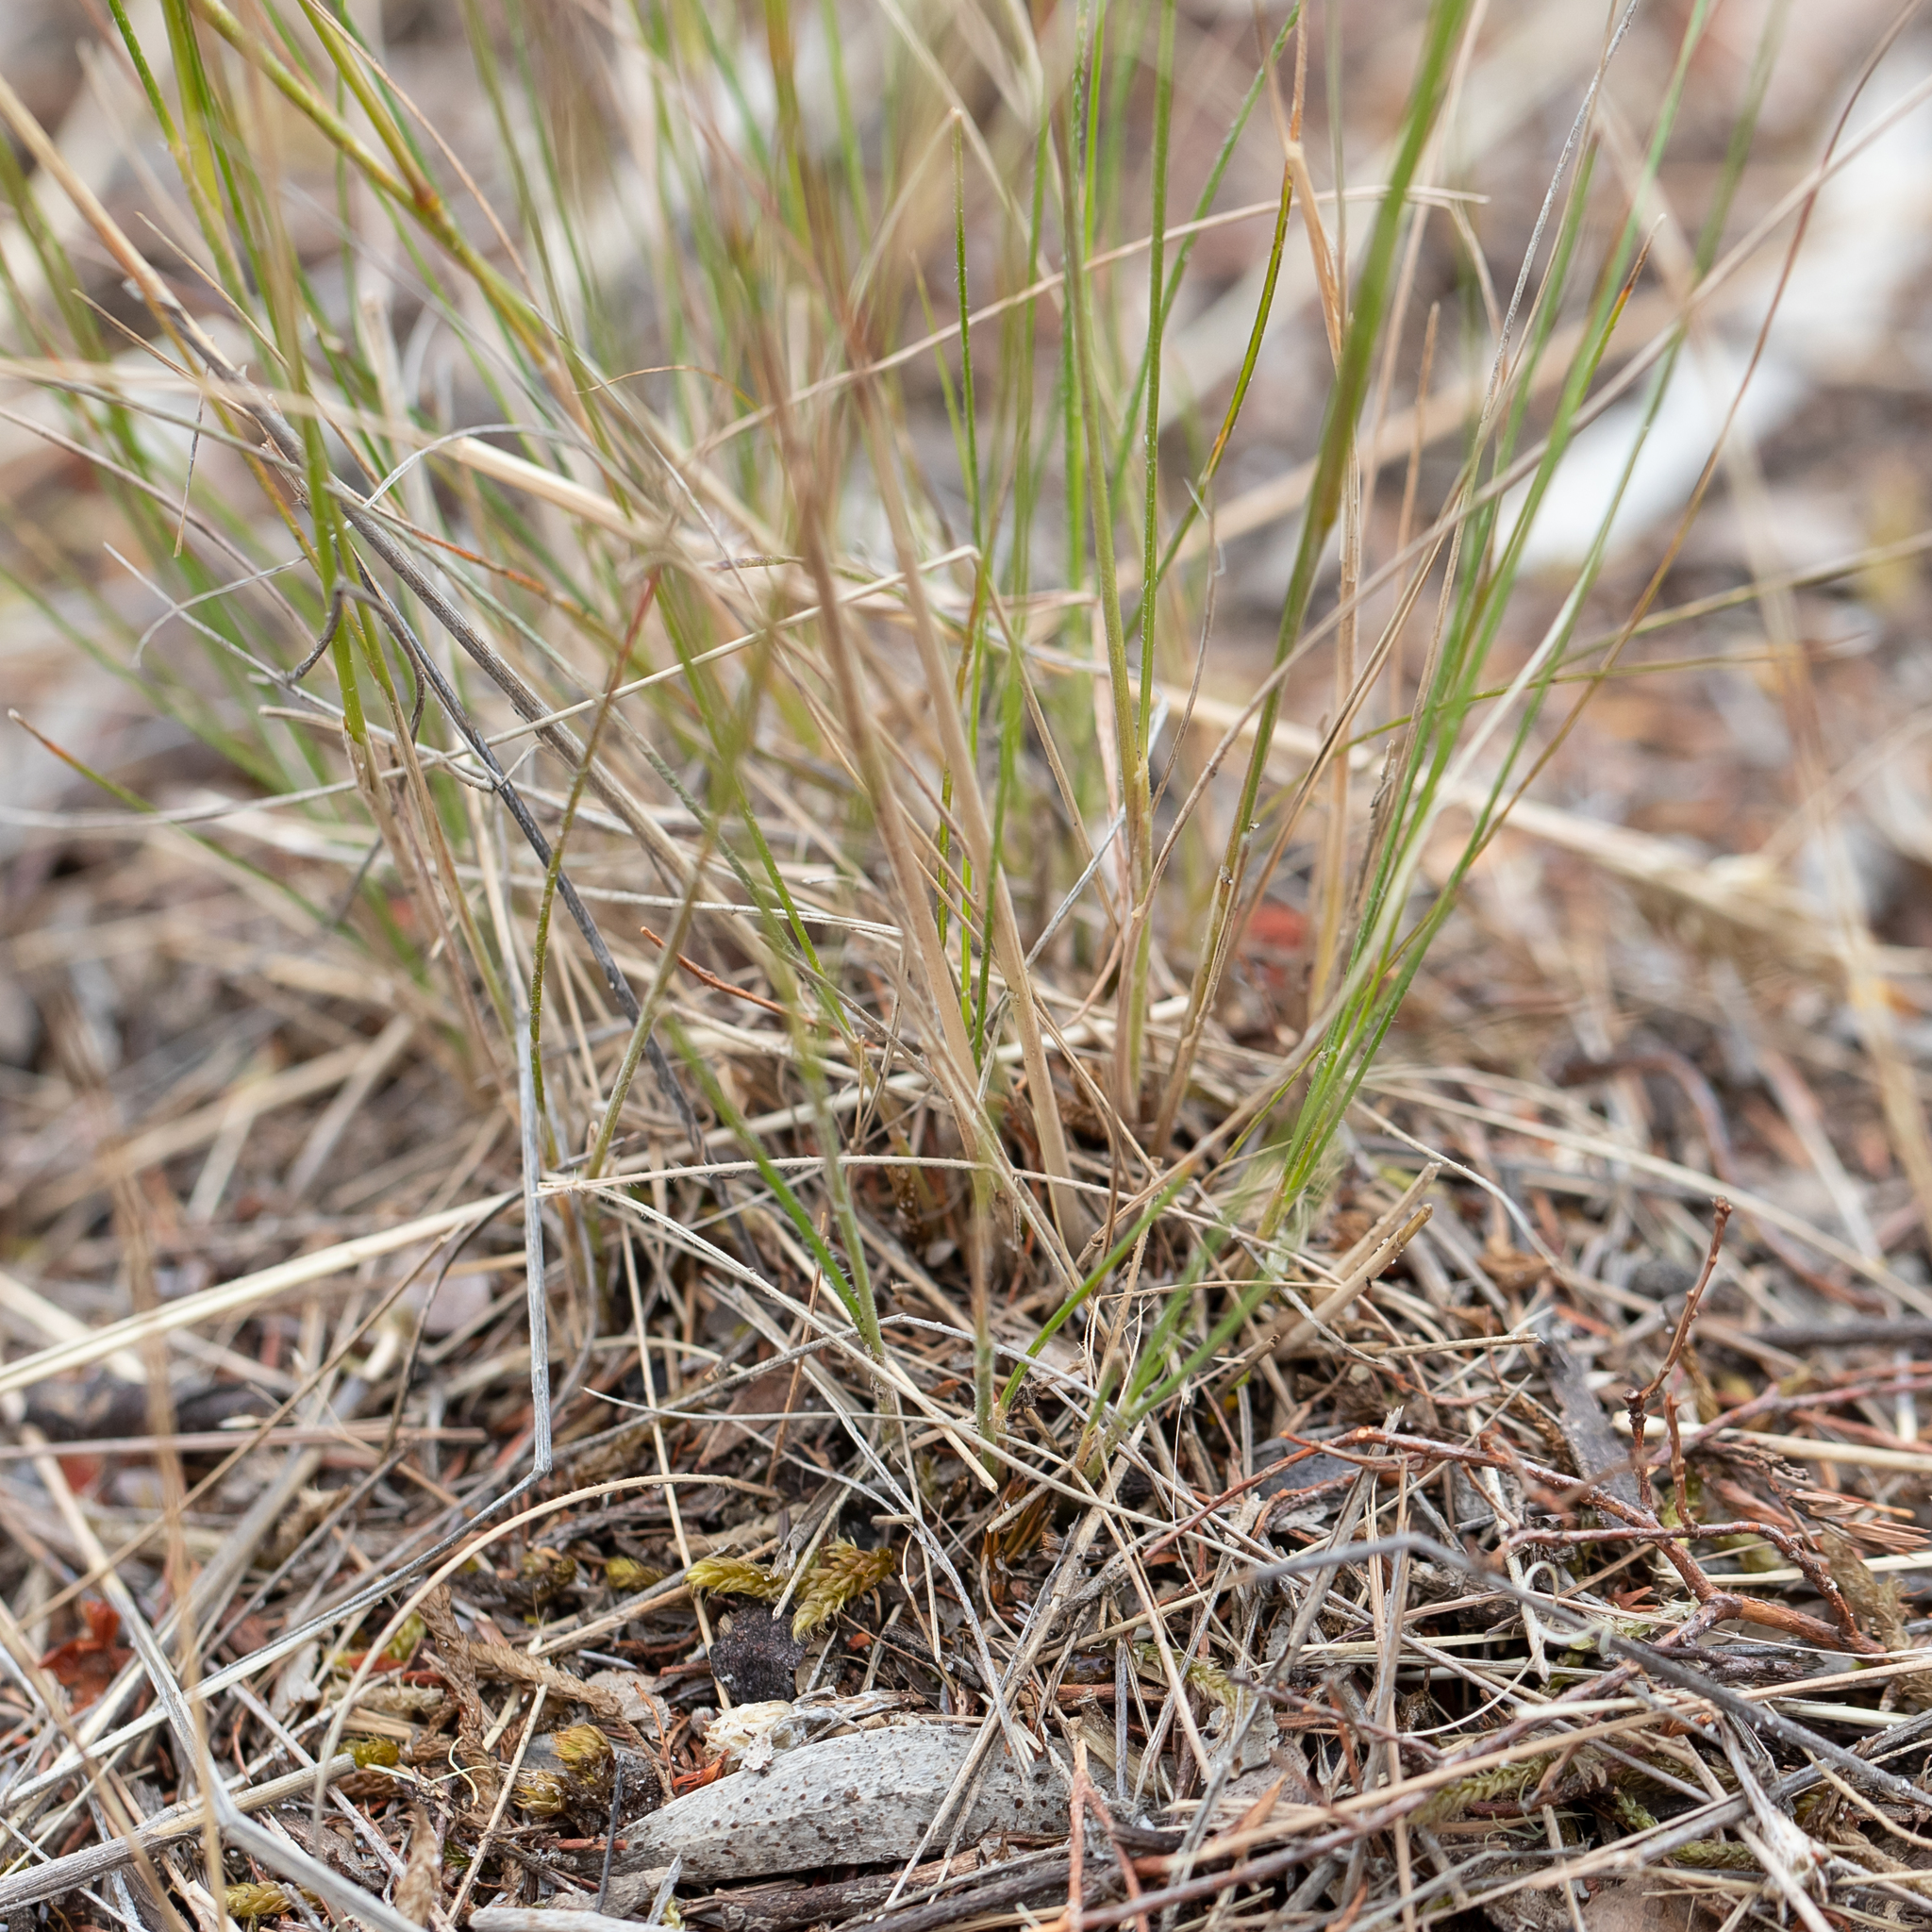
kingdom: Plantae
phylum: Tracheophyta
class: Liliopsida
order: Poales
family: Poaceae
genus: Austrostipa
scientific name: Austrostipa scabra
